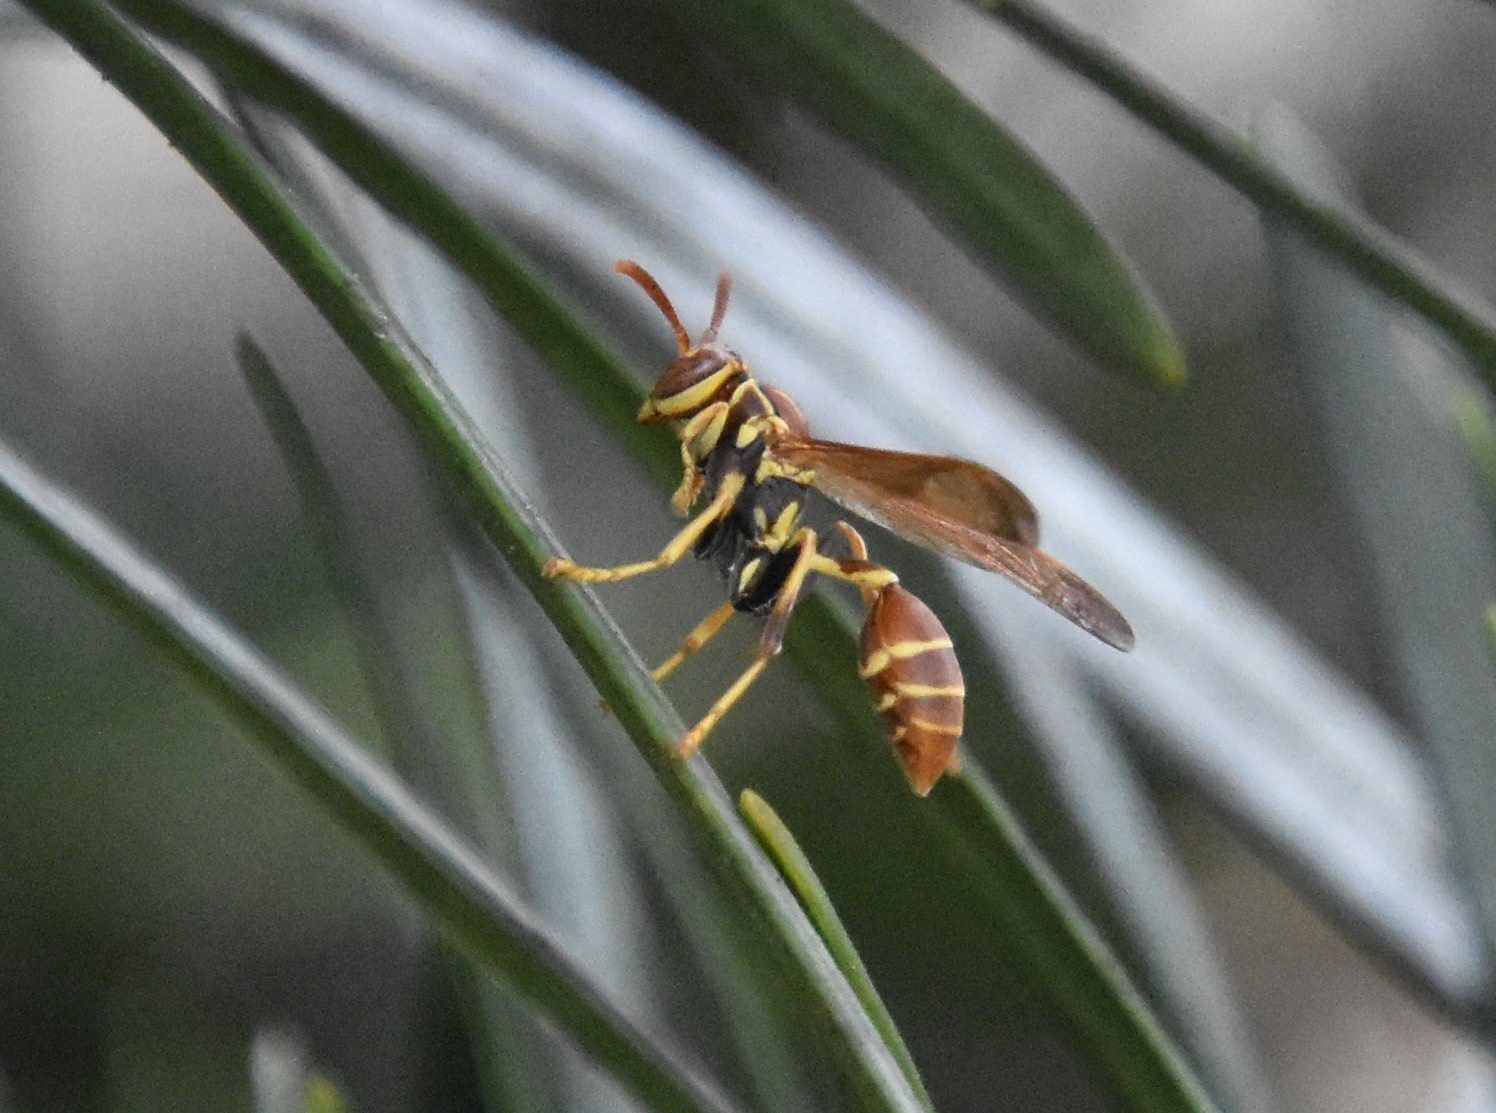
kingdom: Animalia
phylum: Arthropoda
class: Insecta
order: Hymenoptera
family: Vespidae
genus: Mischocyttarus
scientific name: Mischocyttarus mexicanus
